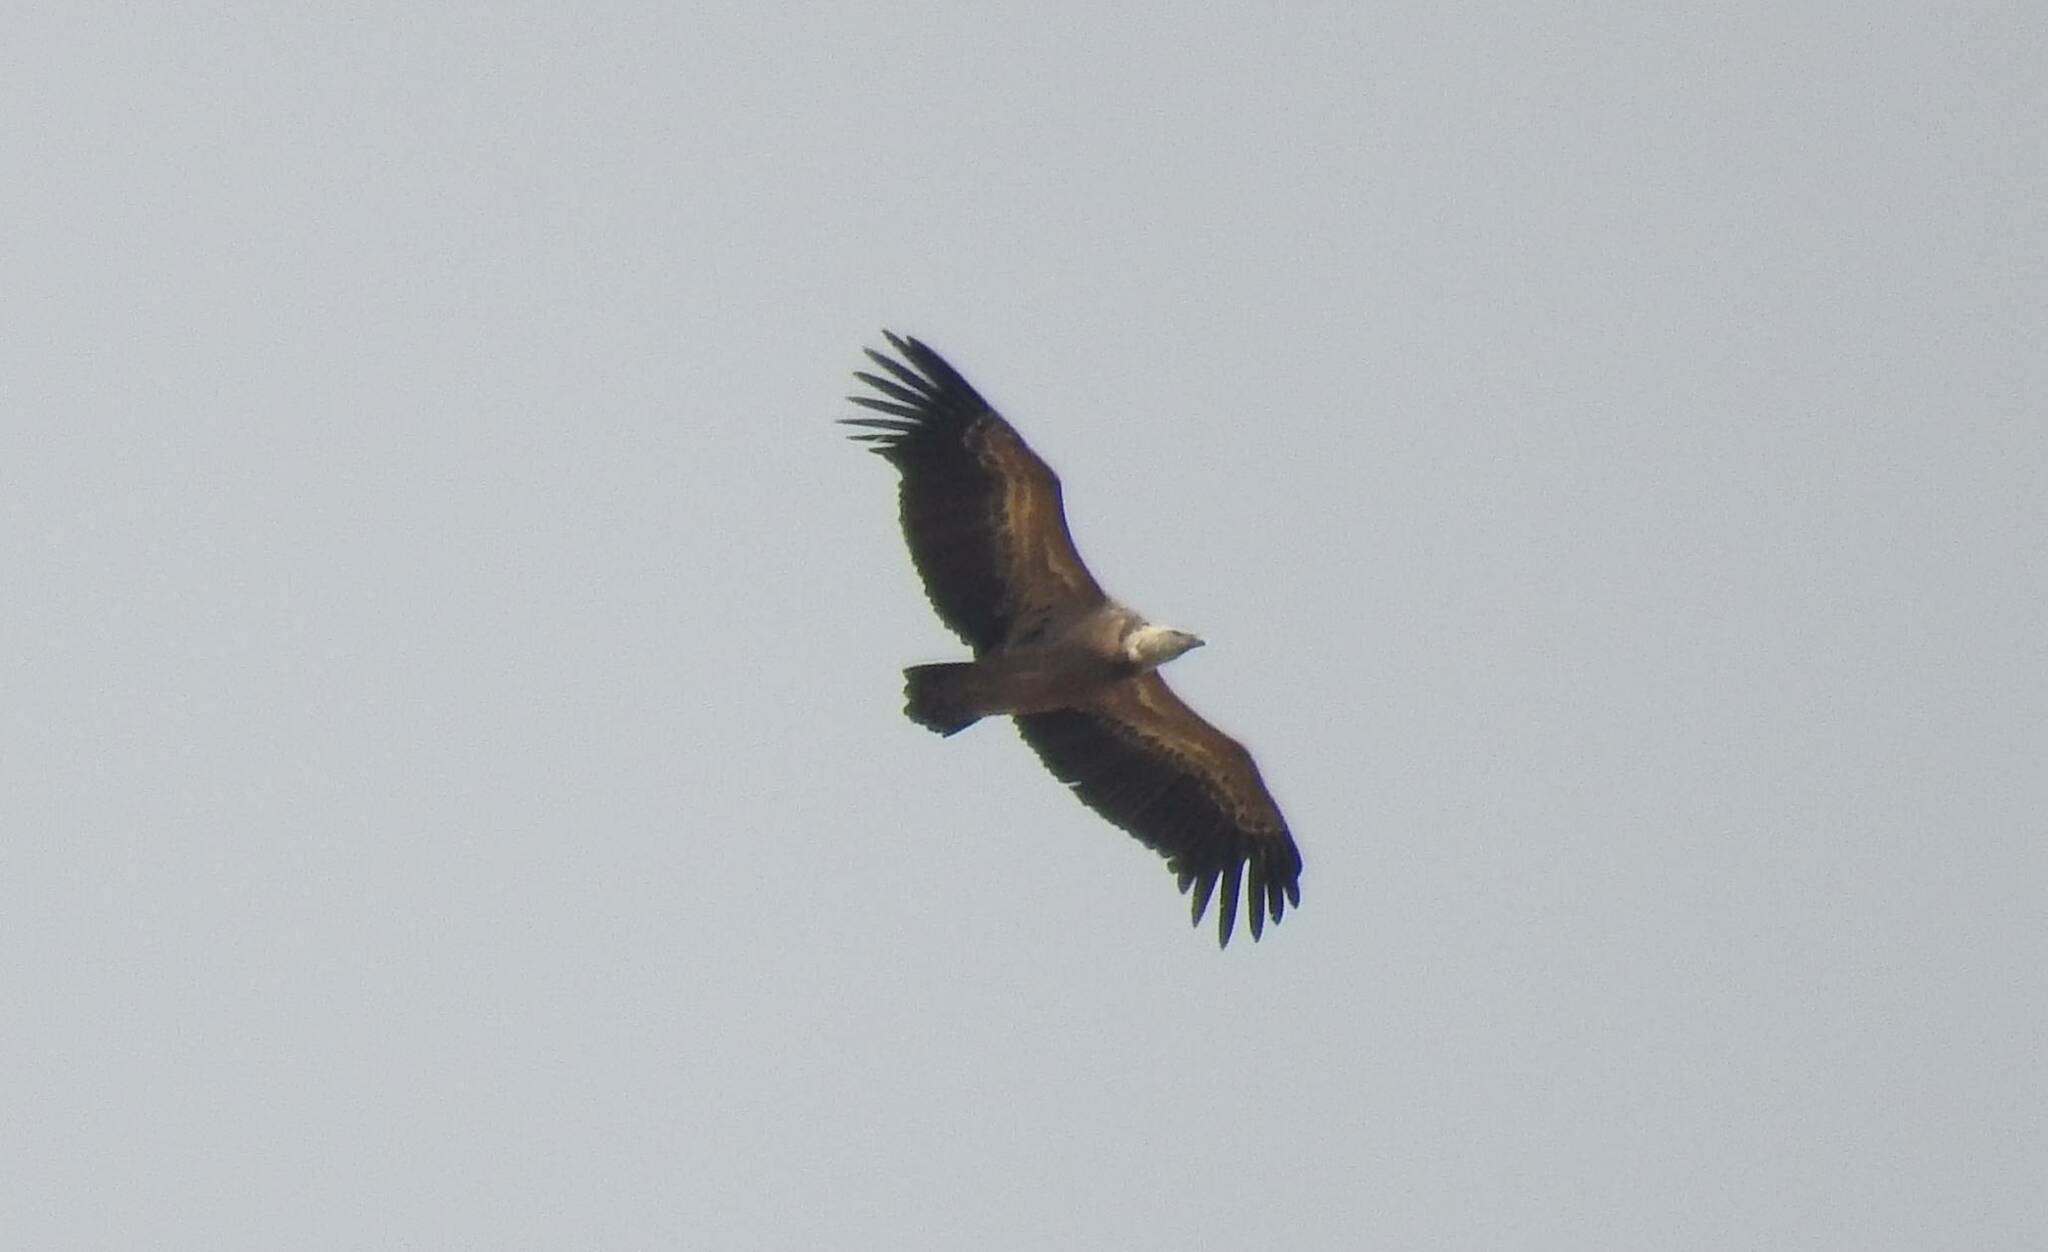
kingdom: Animalia
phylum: Chordata
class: Aves
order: Accipitriformes
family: Accipitridae
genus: Gyps
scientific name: Gyps fulvus
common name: Griffon vulture
